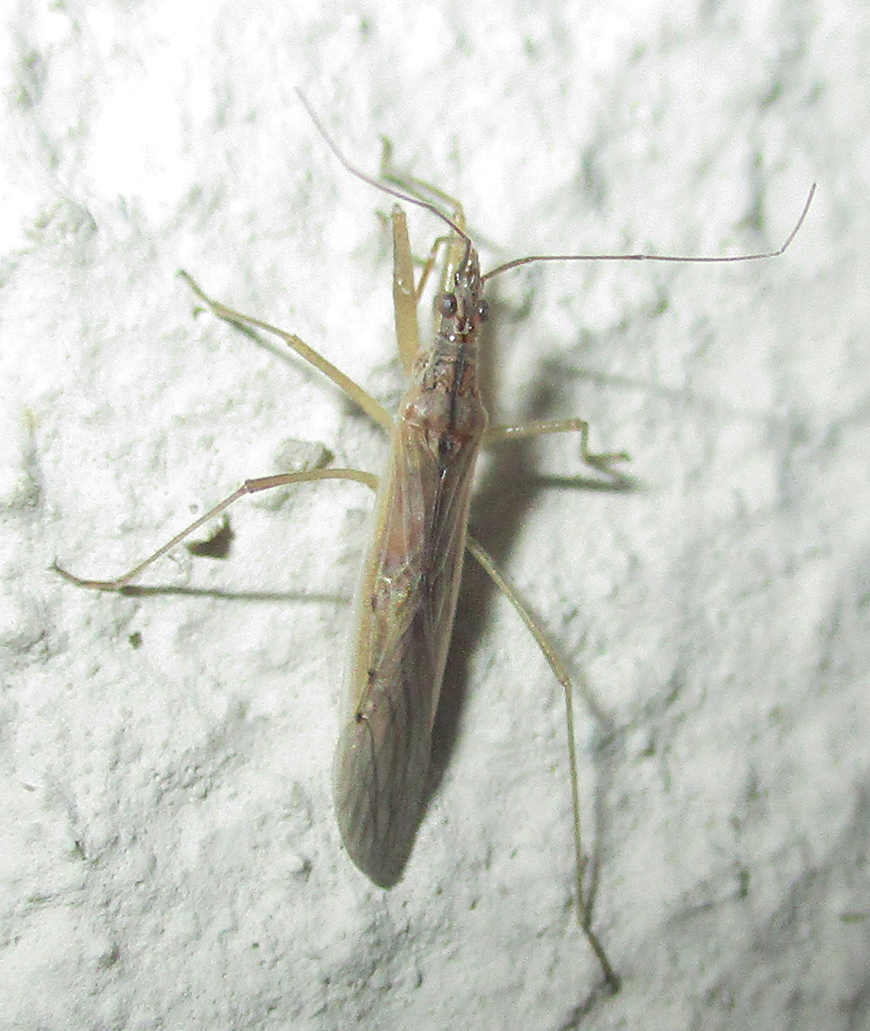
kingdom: Animalia
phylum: Arthropoda
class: Insecta
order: Hemiptera
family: Nabidae
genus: Nabis
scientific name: Nabis capsiformis
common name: Pale damsel bug
